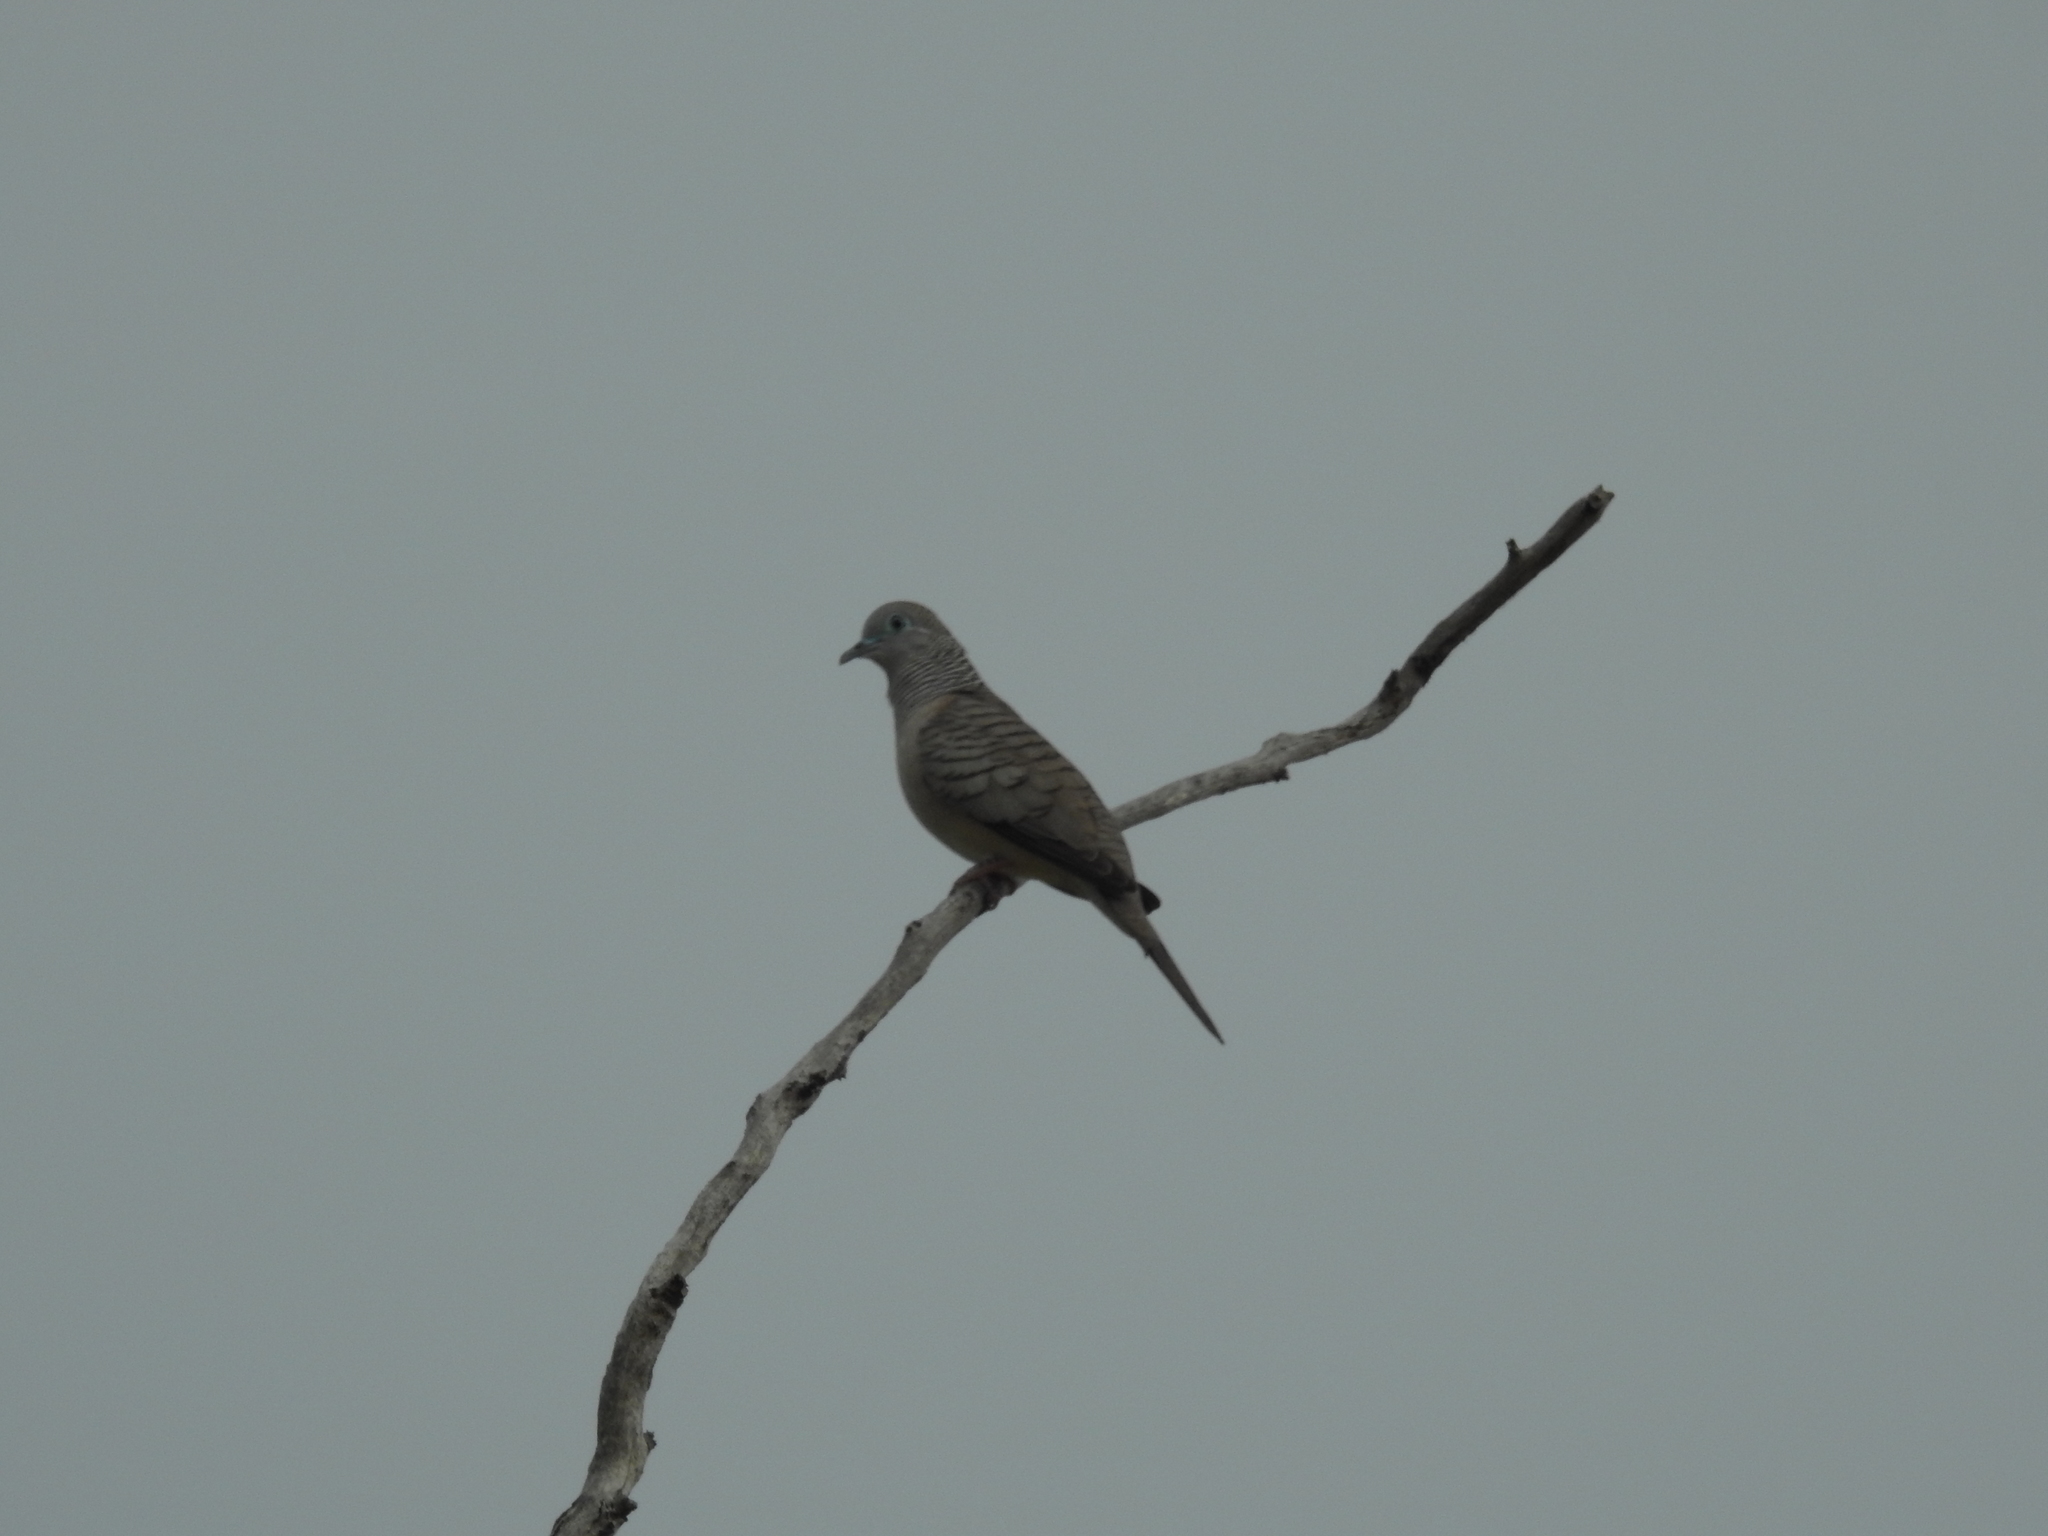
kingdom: Animalia
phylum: Chordata
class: Aves
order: Columbiformes
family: Columbidae
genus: Geopelia
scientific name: Geopelia placida
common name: Peaceful dove
